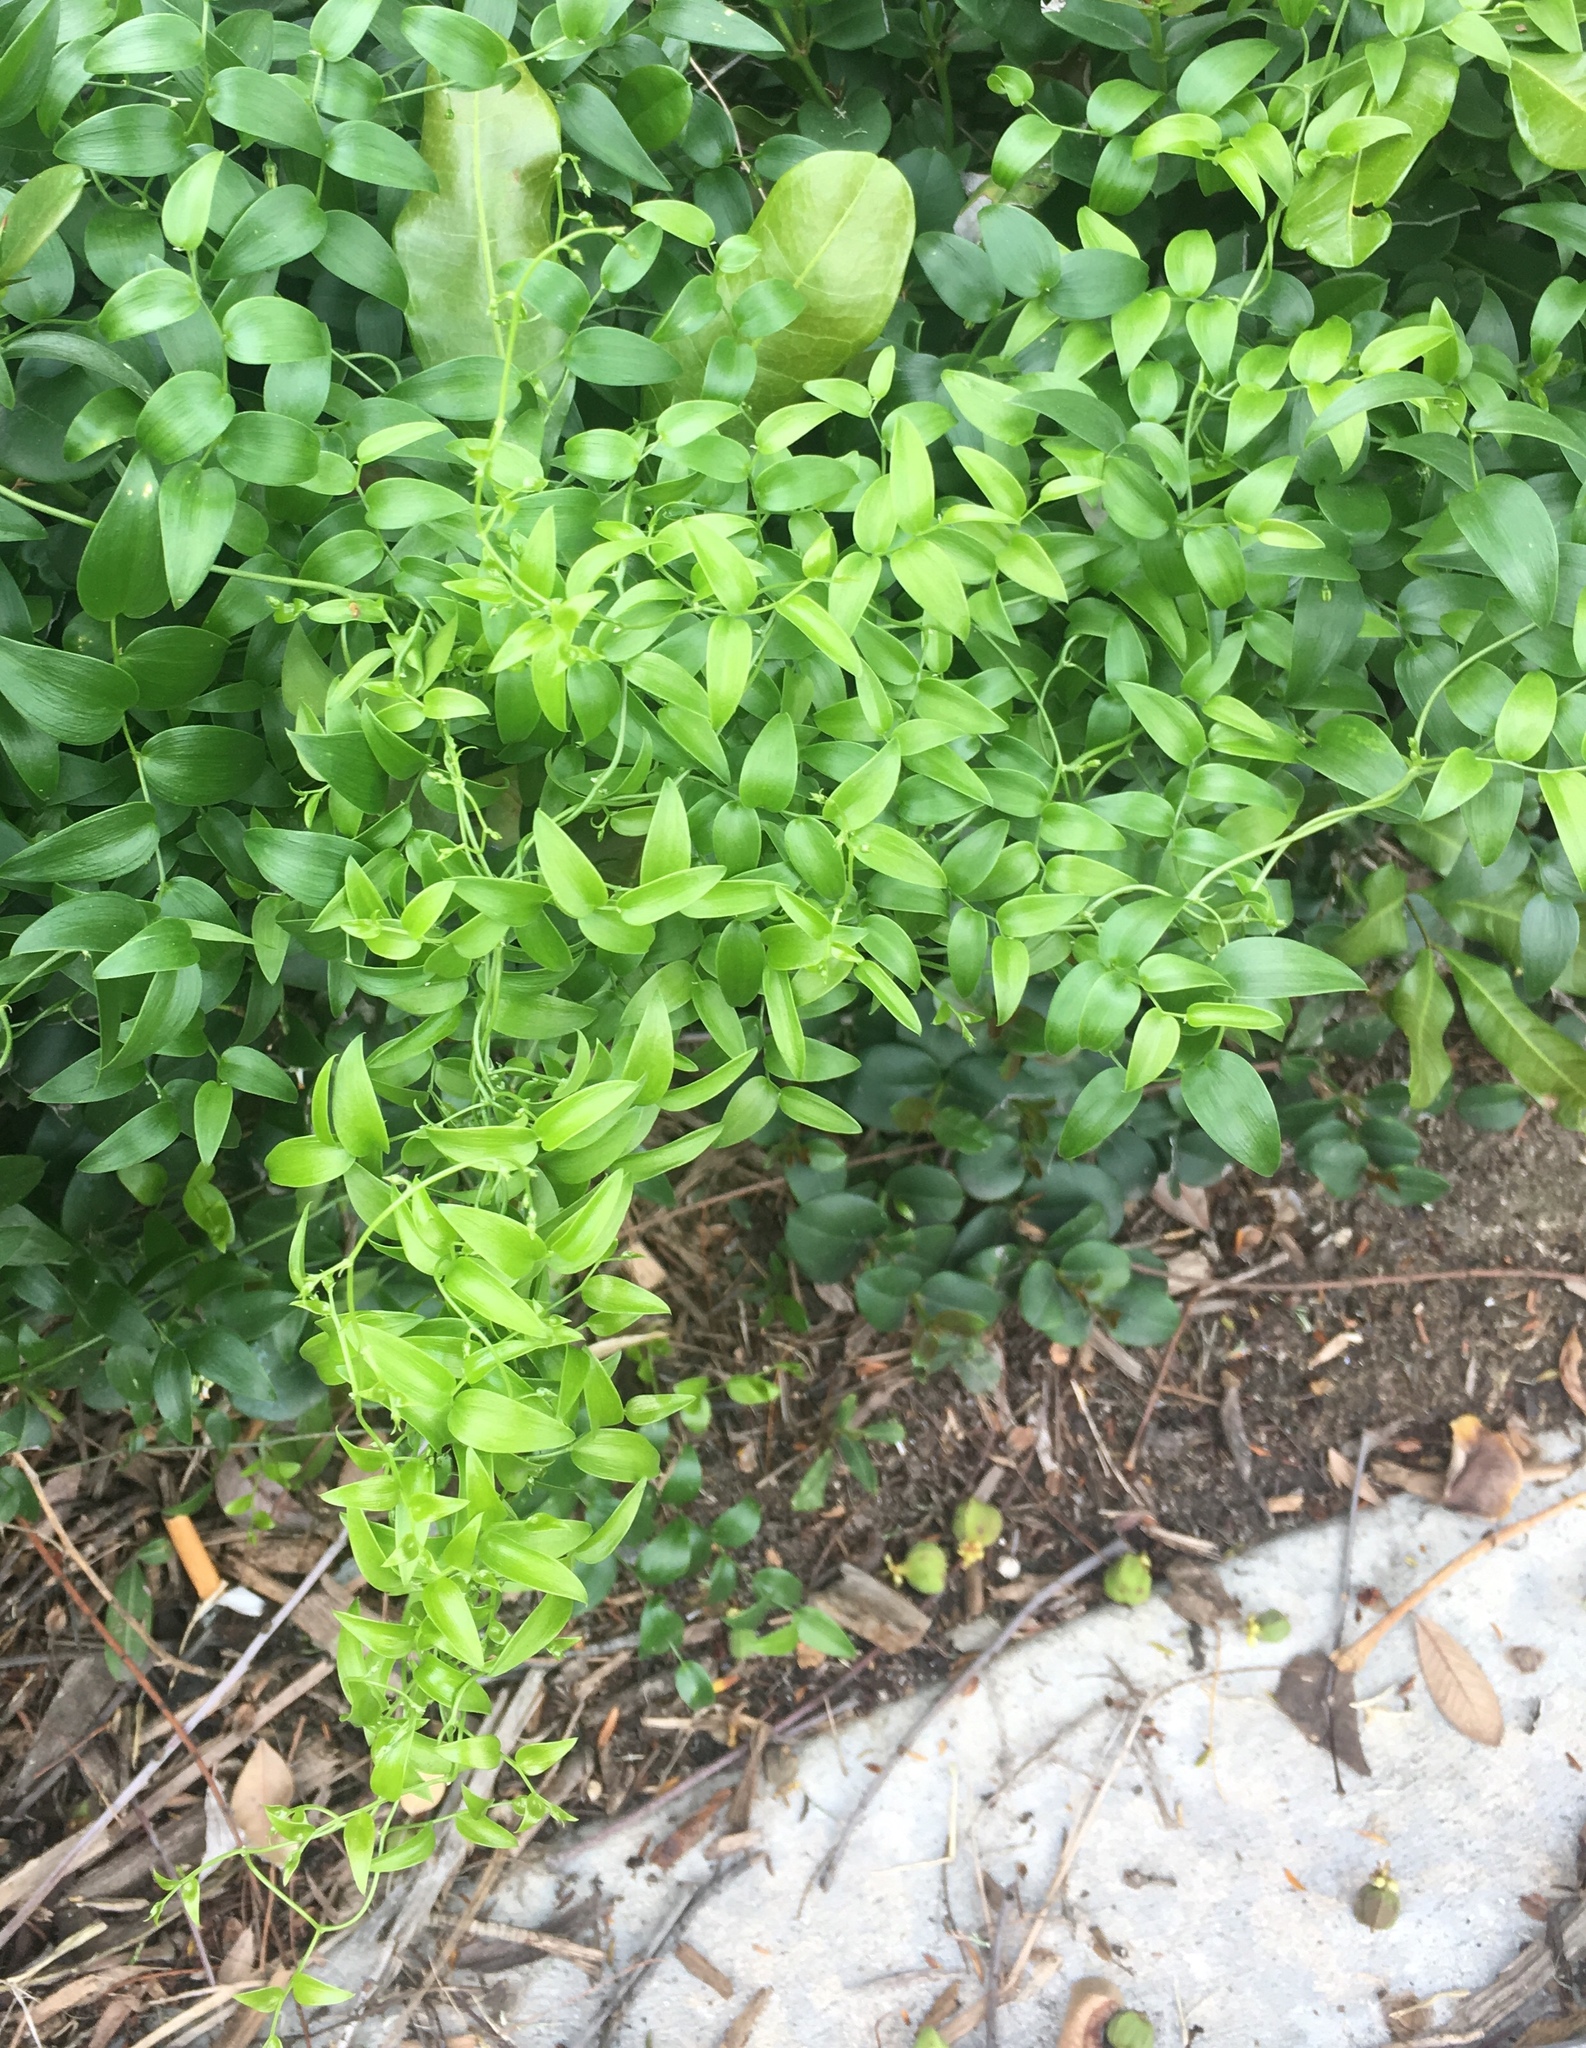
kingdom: Plantae
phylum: Tracheophyta
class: Liliopsida
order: Asparagales
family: Asparagaceae
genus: Asparagus
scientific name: Asparagus asparagoides
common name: African asparagus fern
